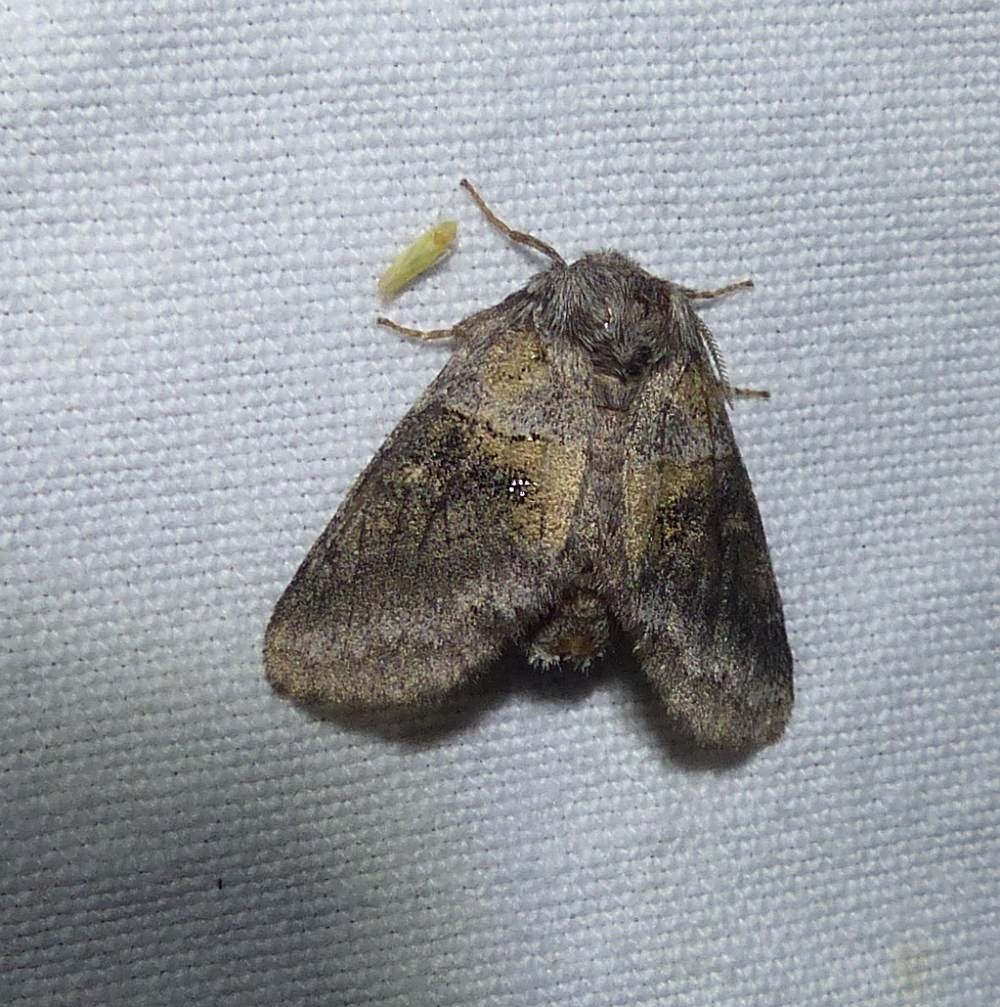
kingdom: Animalia
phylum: Arthropoda
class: Insecta
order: Lepidoptera
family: Notodontidae
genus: Gluphisia
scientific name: Gluphisia septentrionis
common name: Common gluphisia
